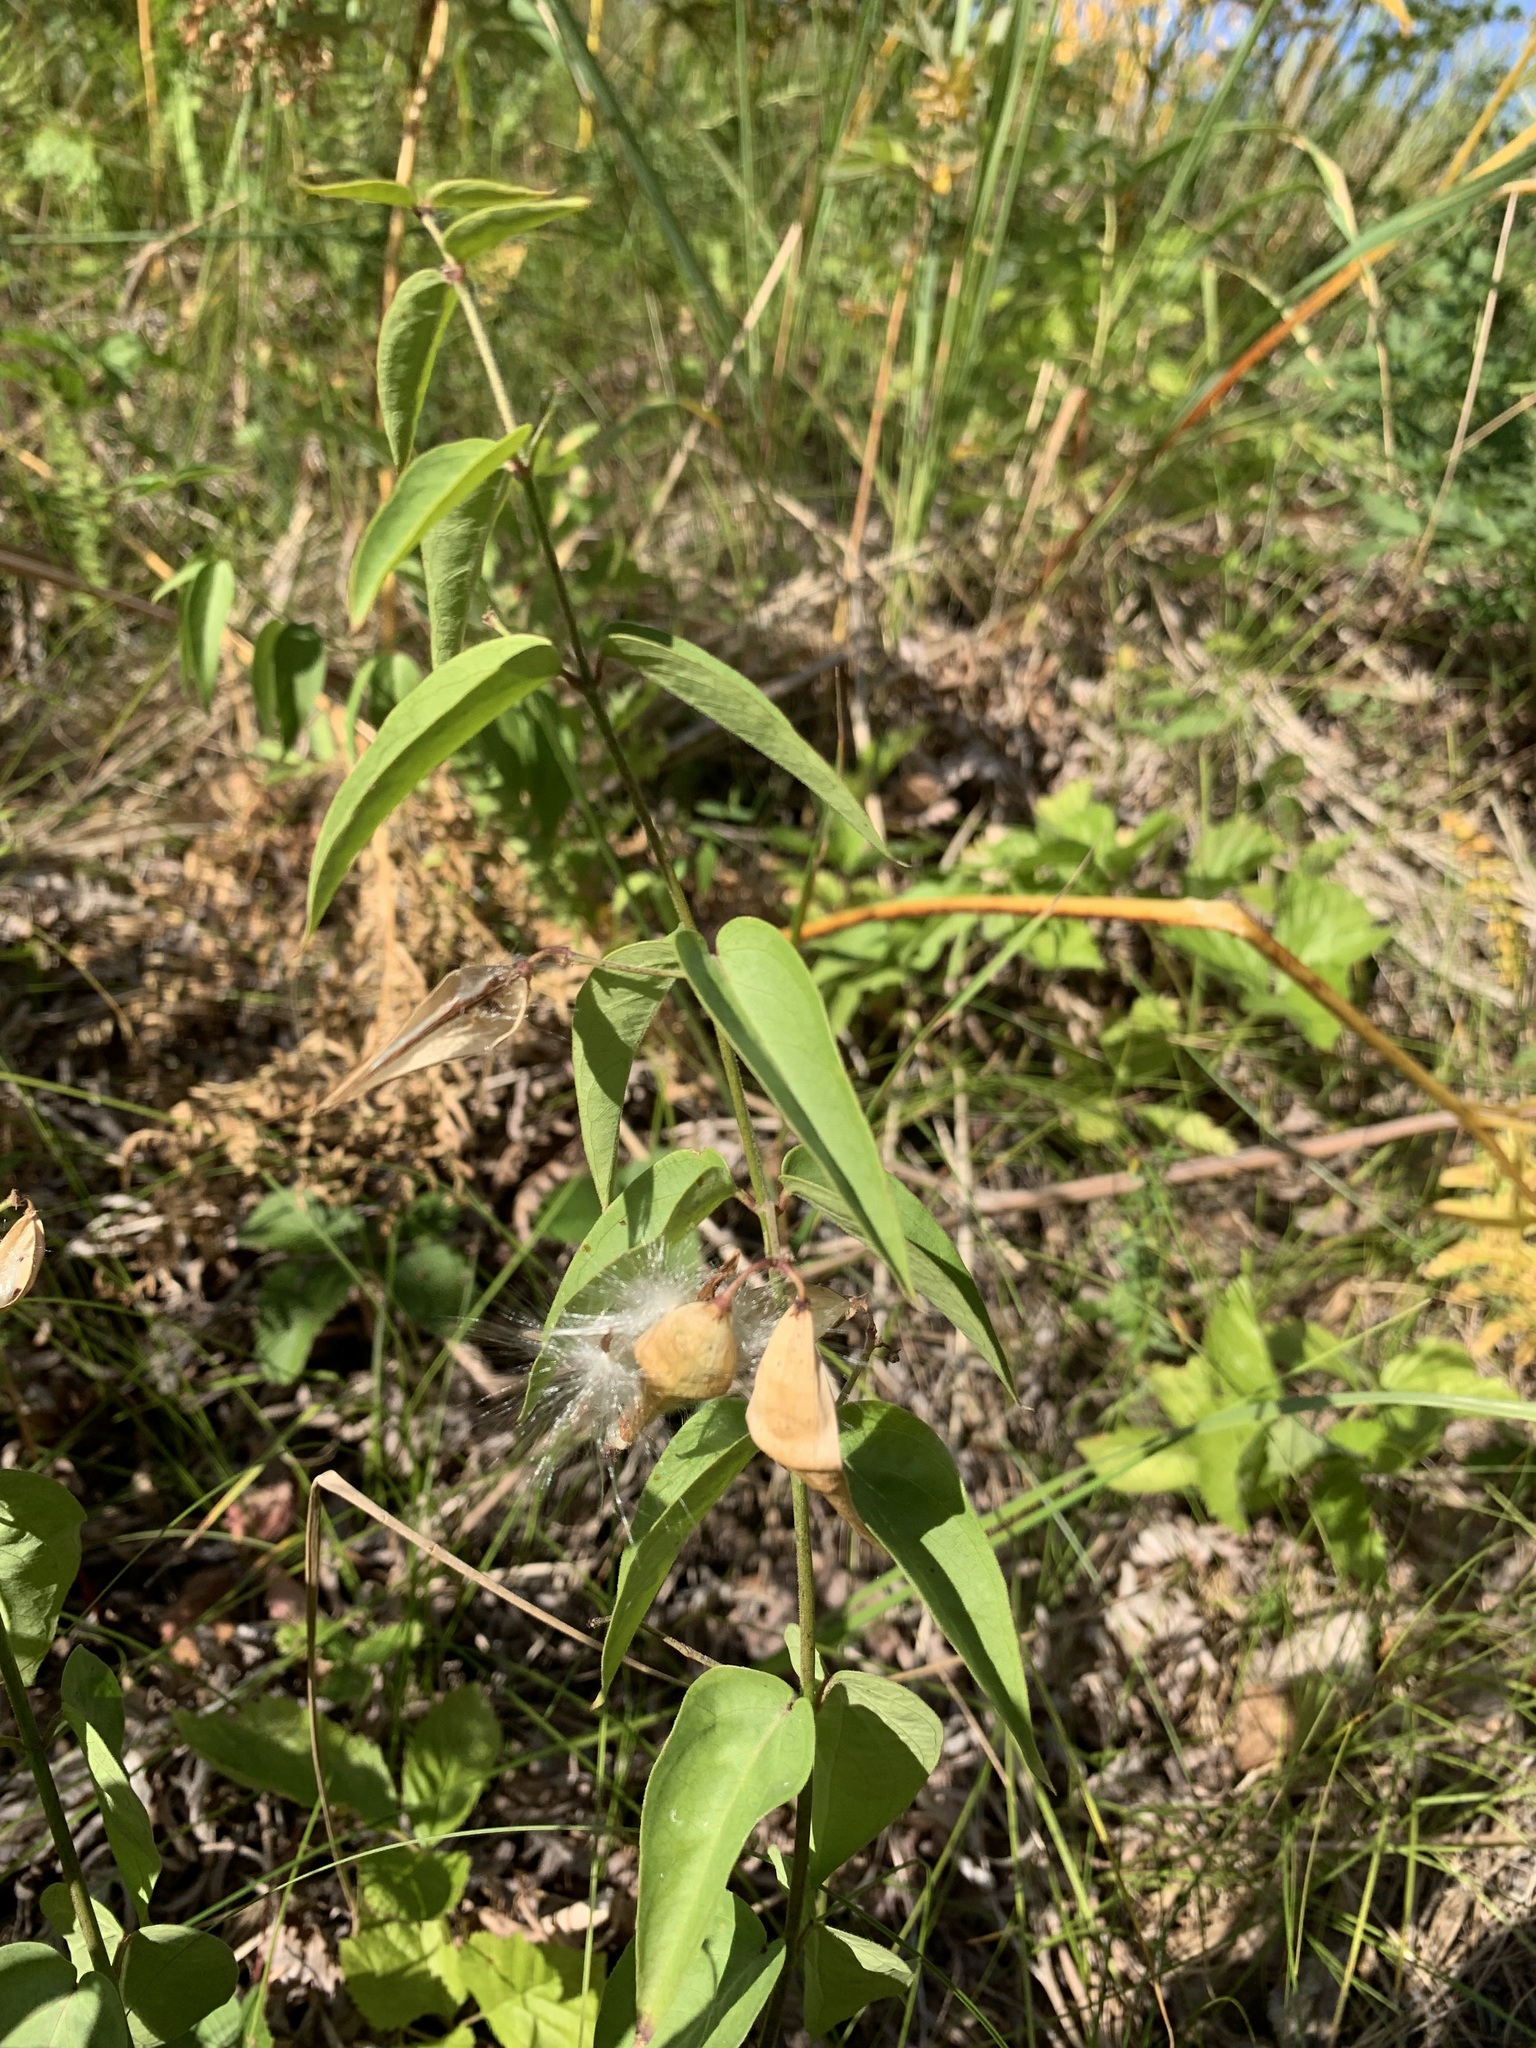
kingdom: Plantae
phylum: Tracheophyta
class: Magnoliopsida
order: Gentianales
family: Apocynaceae
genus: Vincetoxicum
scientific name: Vincetoxicum hirundinaria
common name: White swallowwort
